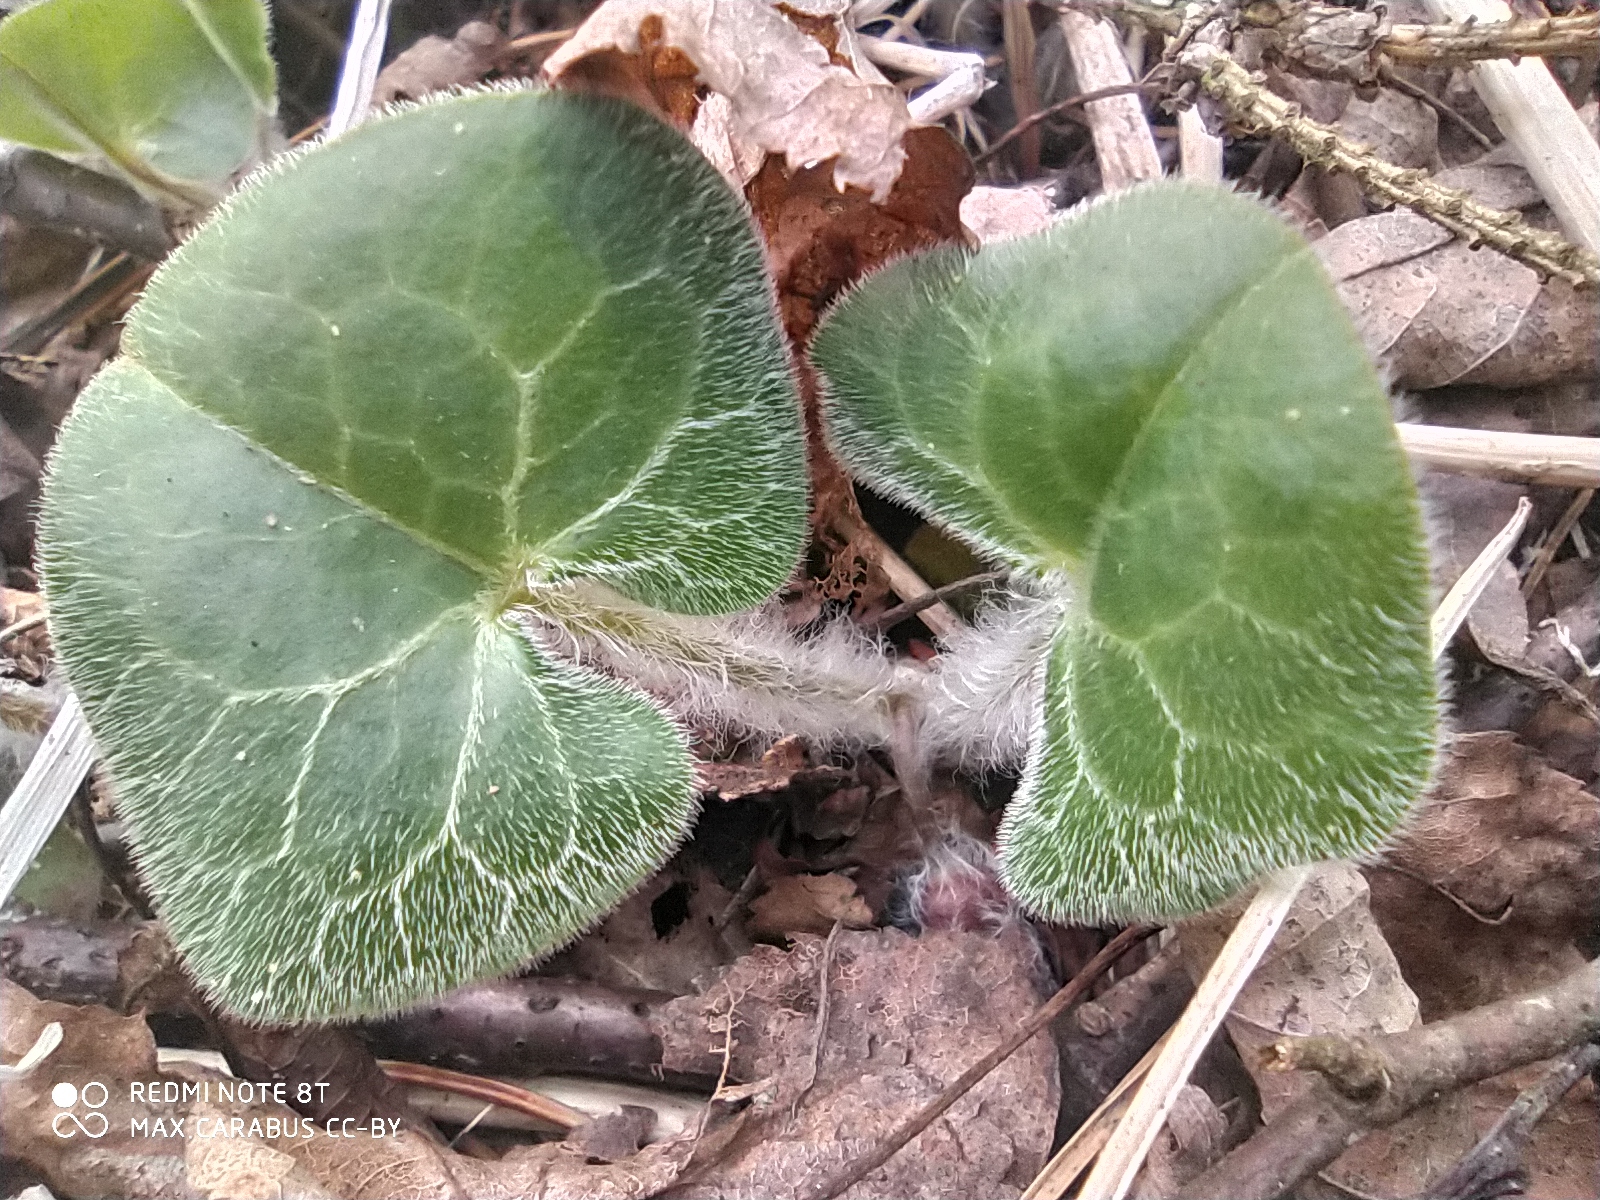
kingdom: Plantae
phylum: Tracheophyta
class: Magnoliopsida
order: Piperales
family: Aristolochiaceae
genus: Asarum
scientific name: Asarum europaeum
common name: Asarabacca
